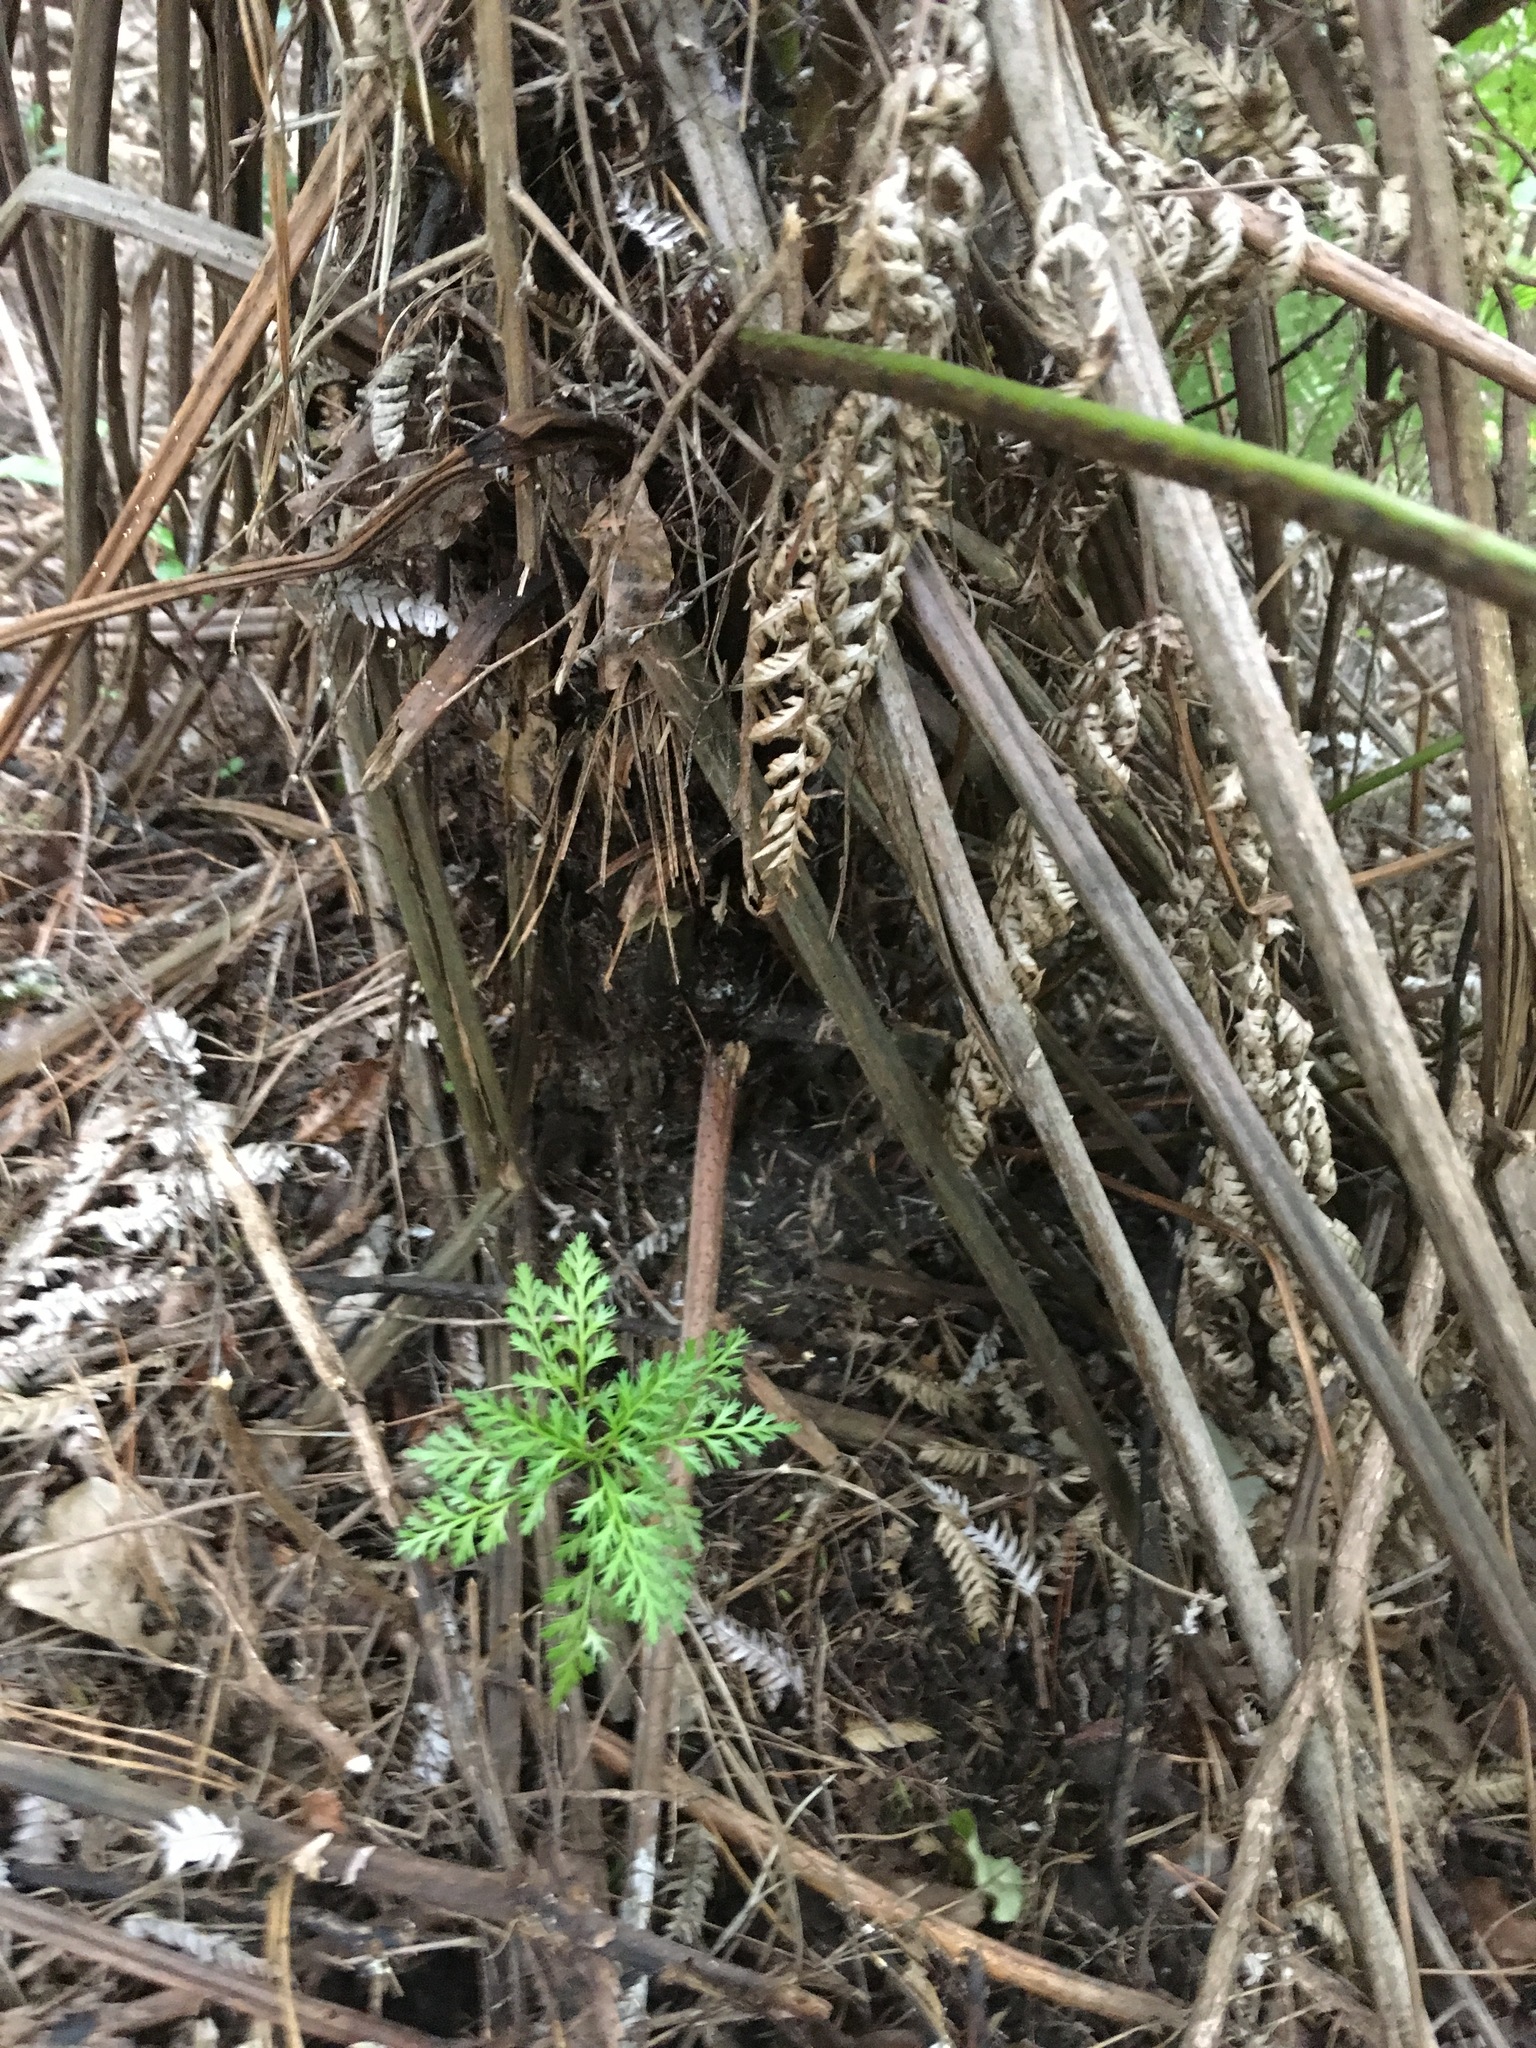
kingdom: Plantae
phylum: Tracheophyta
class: Pinopsida
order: Pinales
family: Phyllocladaceae
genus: Phyllocladus
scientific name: Phyllocladus trichomanoides
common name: Celery pine
